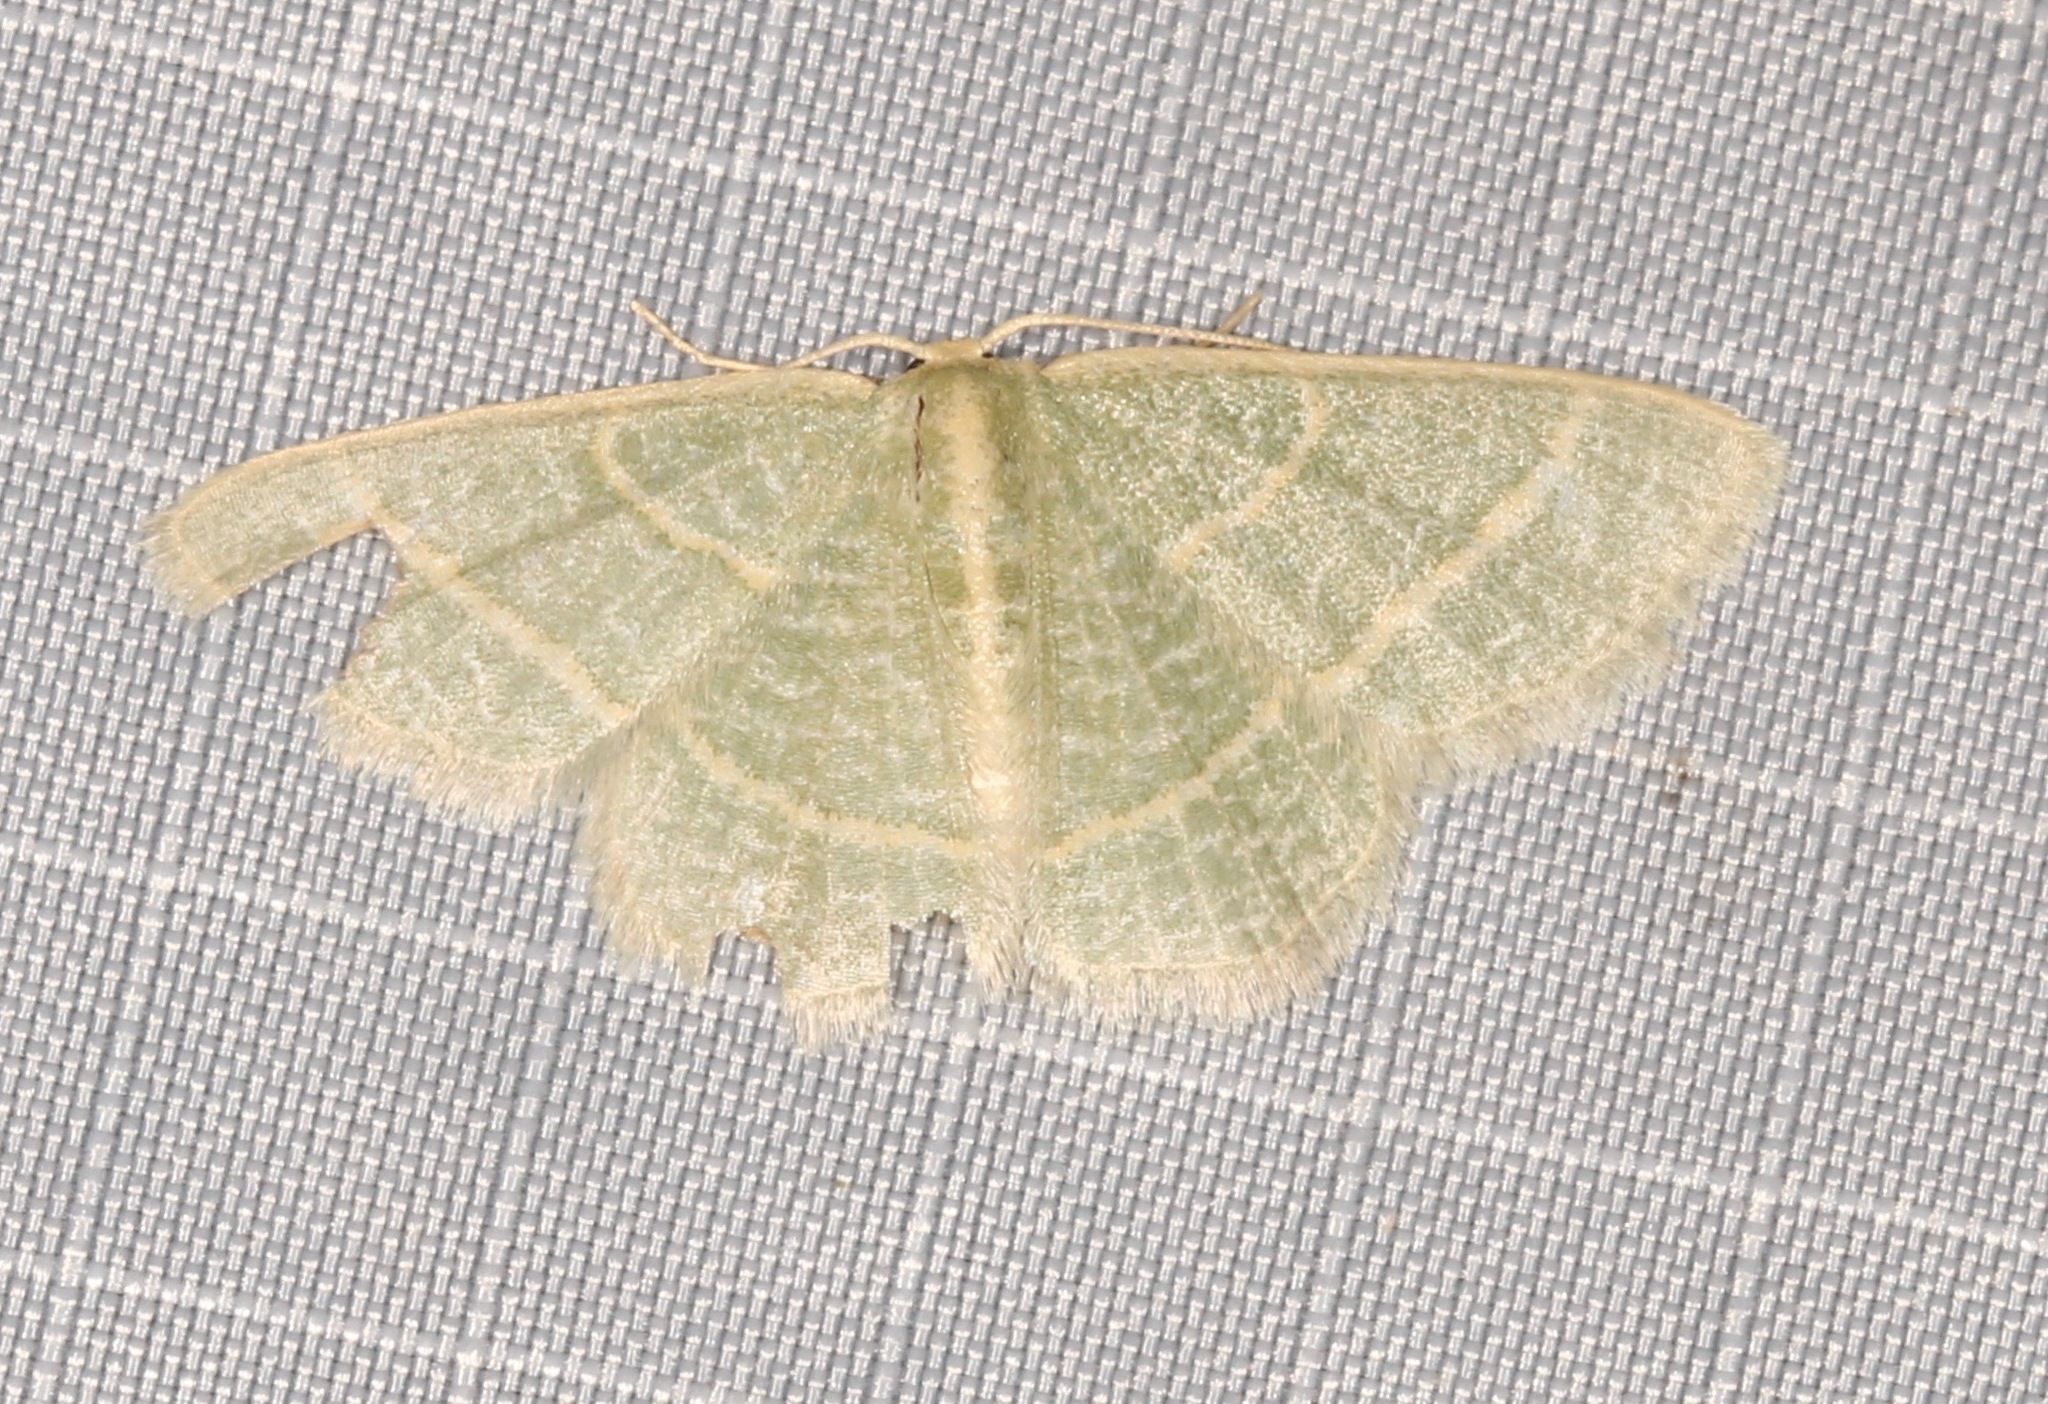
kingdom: Animalia
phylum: Arthropoda
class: Insecta
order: Lepidoptera
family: Geometridae
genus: Chlorochlamys
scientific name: Chlorochlamys chloroleucaria
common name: Blackberry looper
